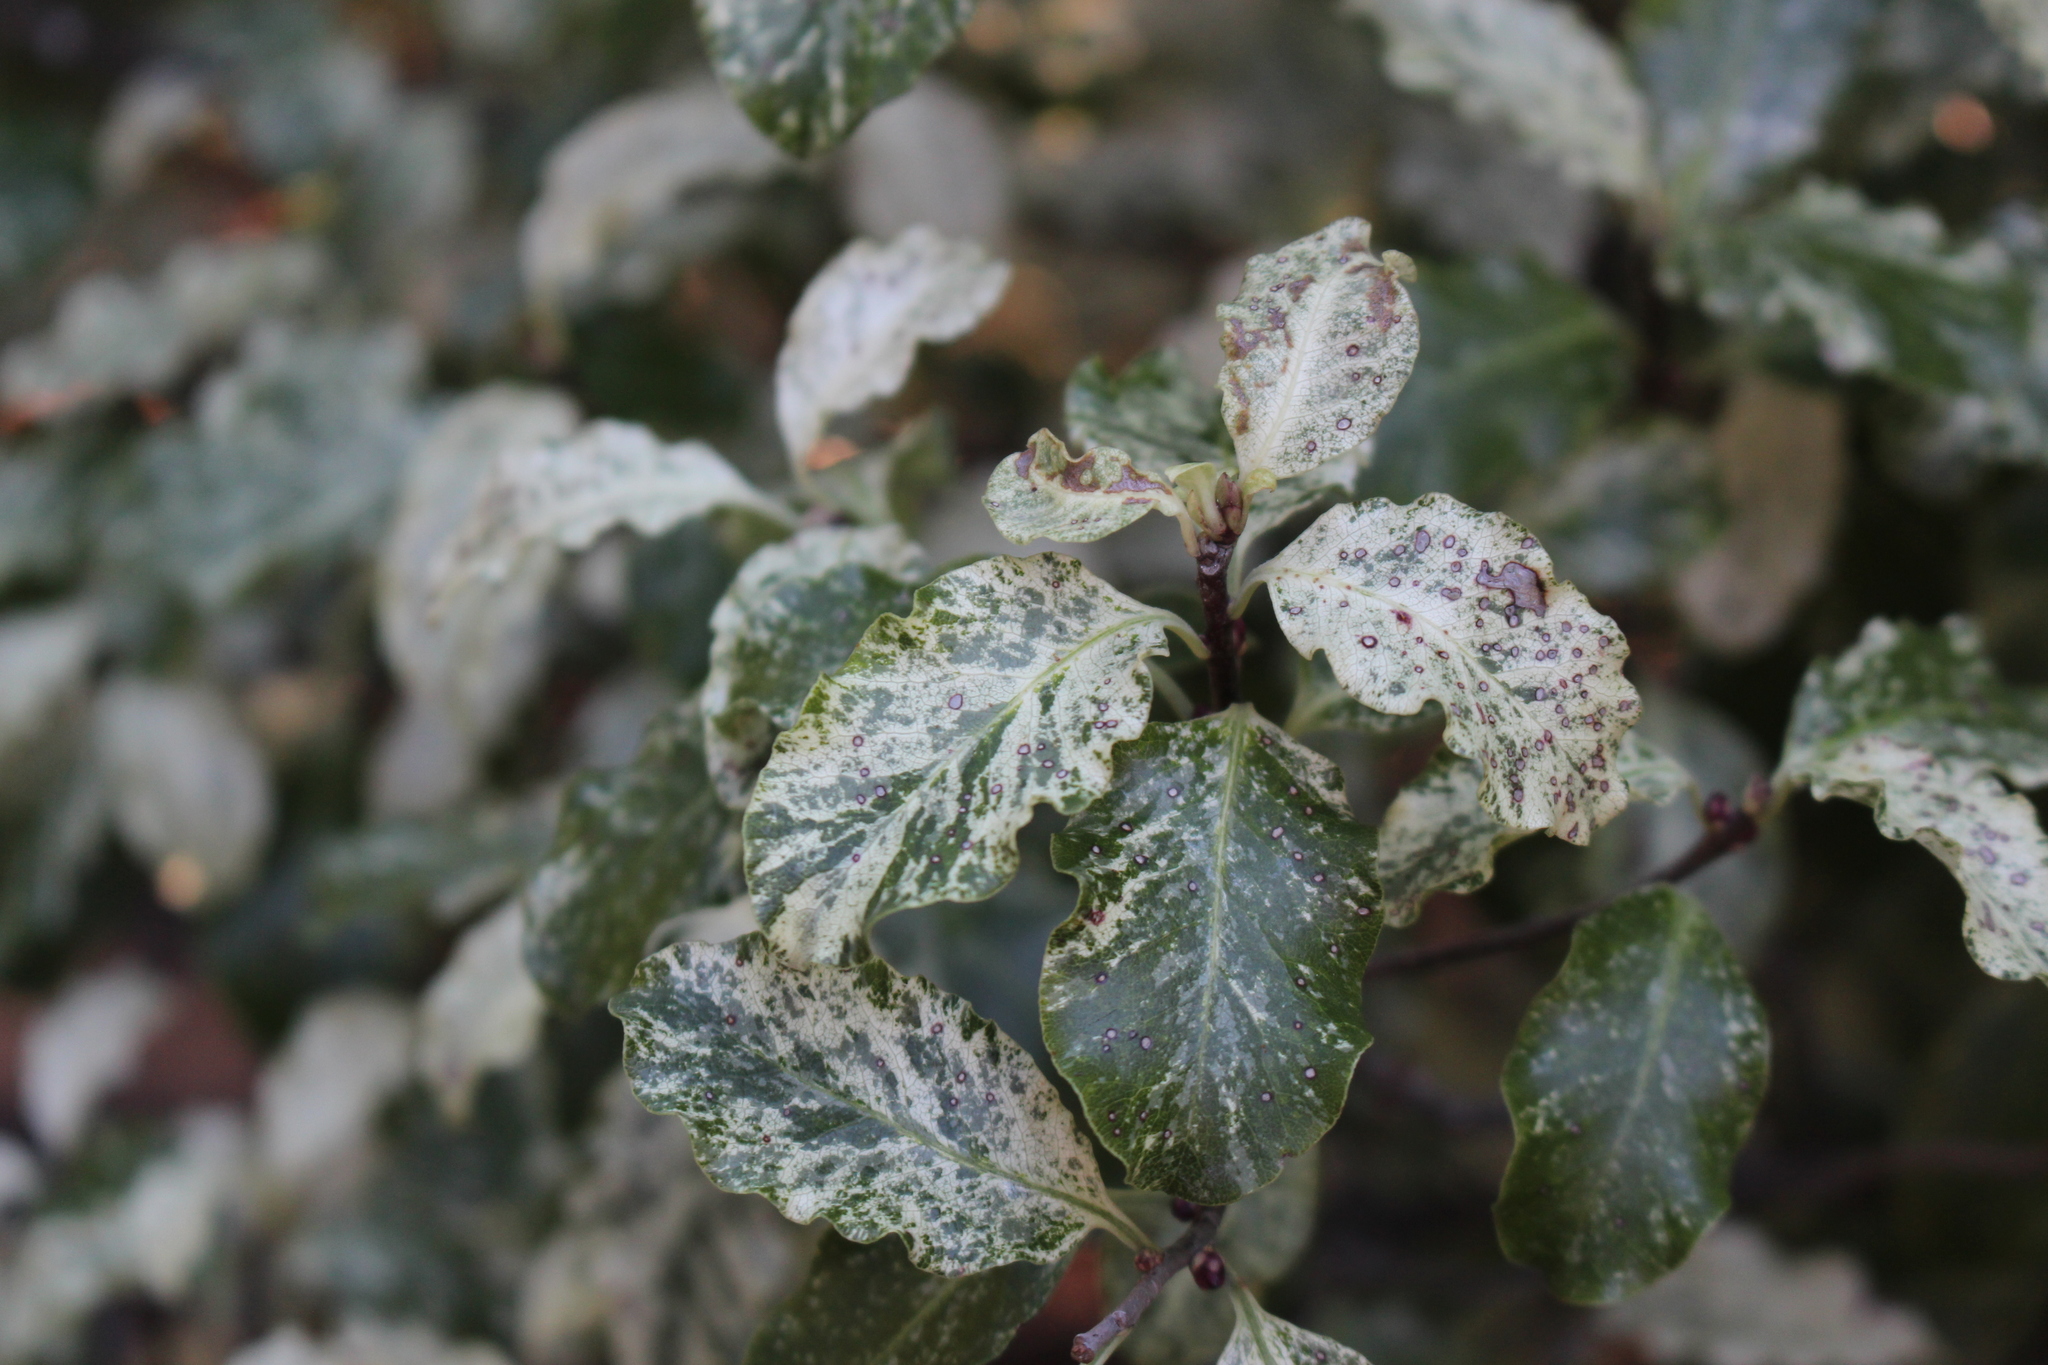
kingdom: Plantae
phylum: Tracheophyta
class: Magnoliopsida
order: Apiales
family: Pittosporaceae
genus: Pittosporum
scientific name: Pittosporum tenuifolium
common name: Kohuhu
